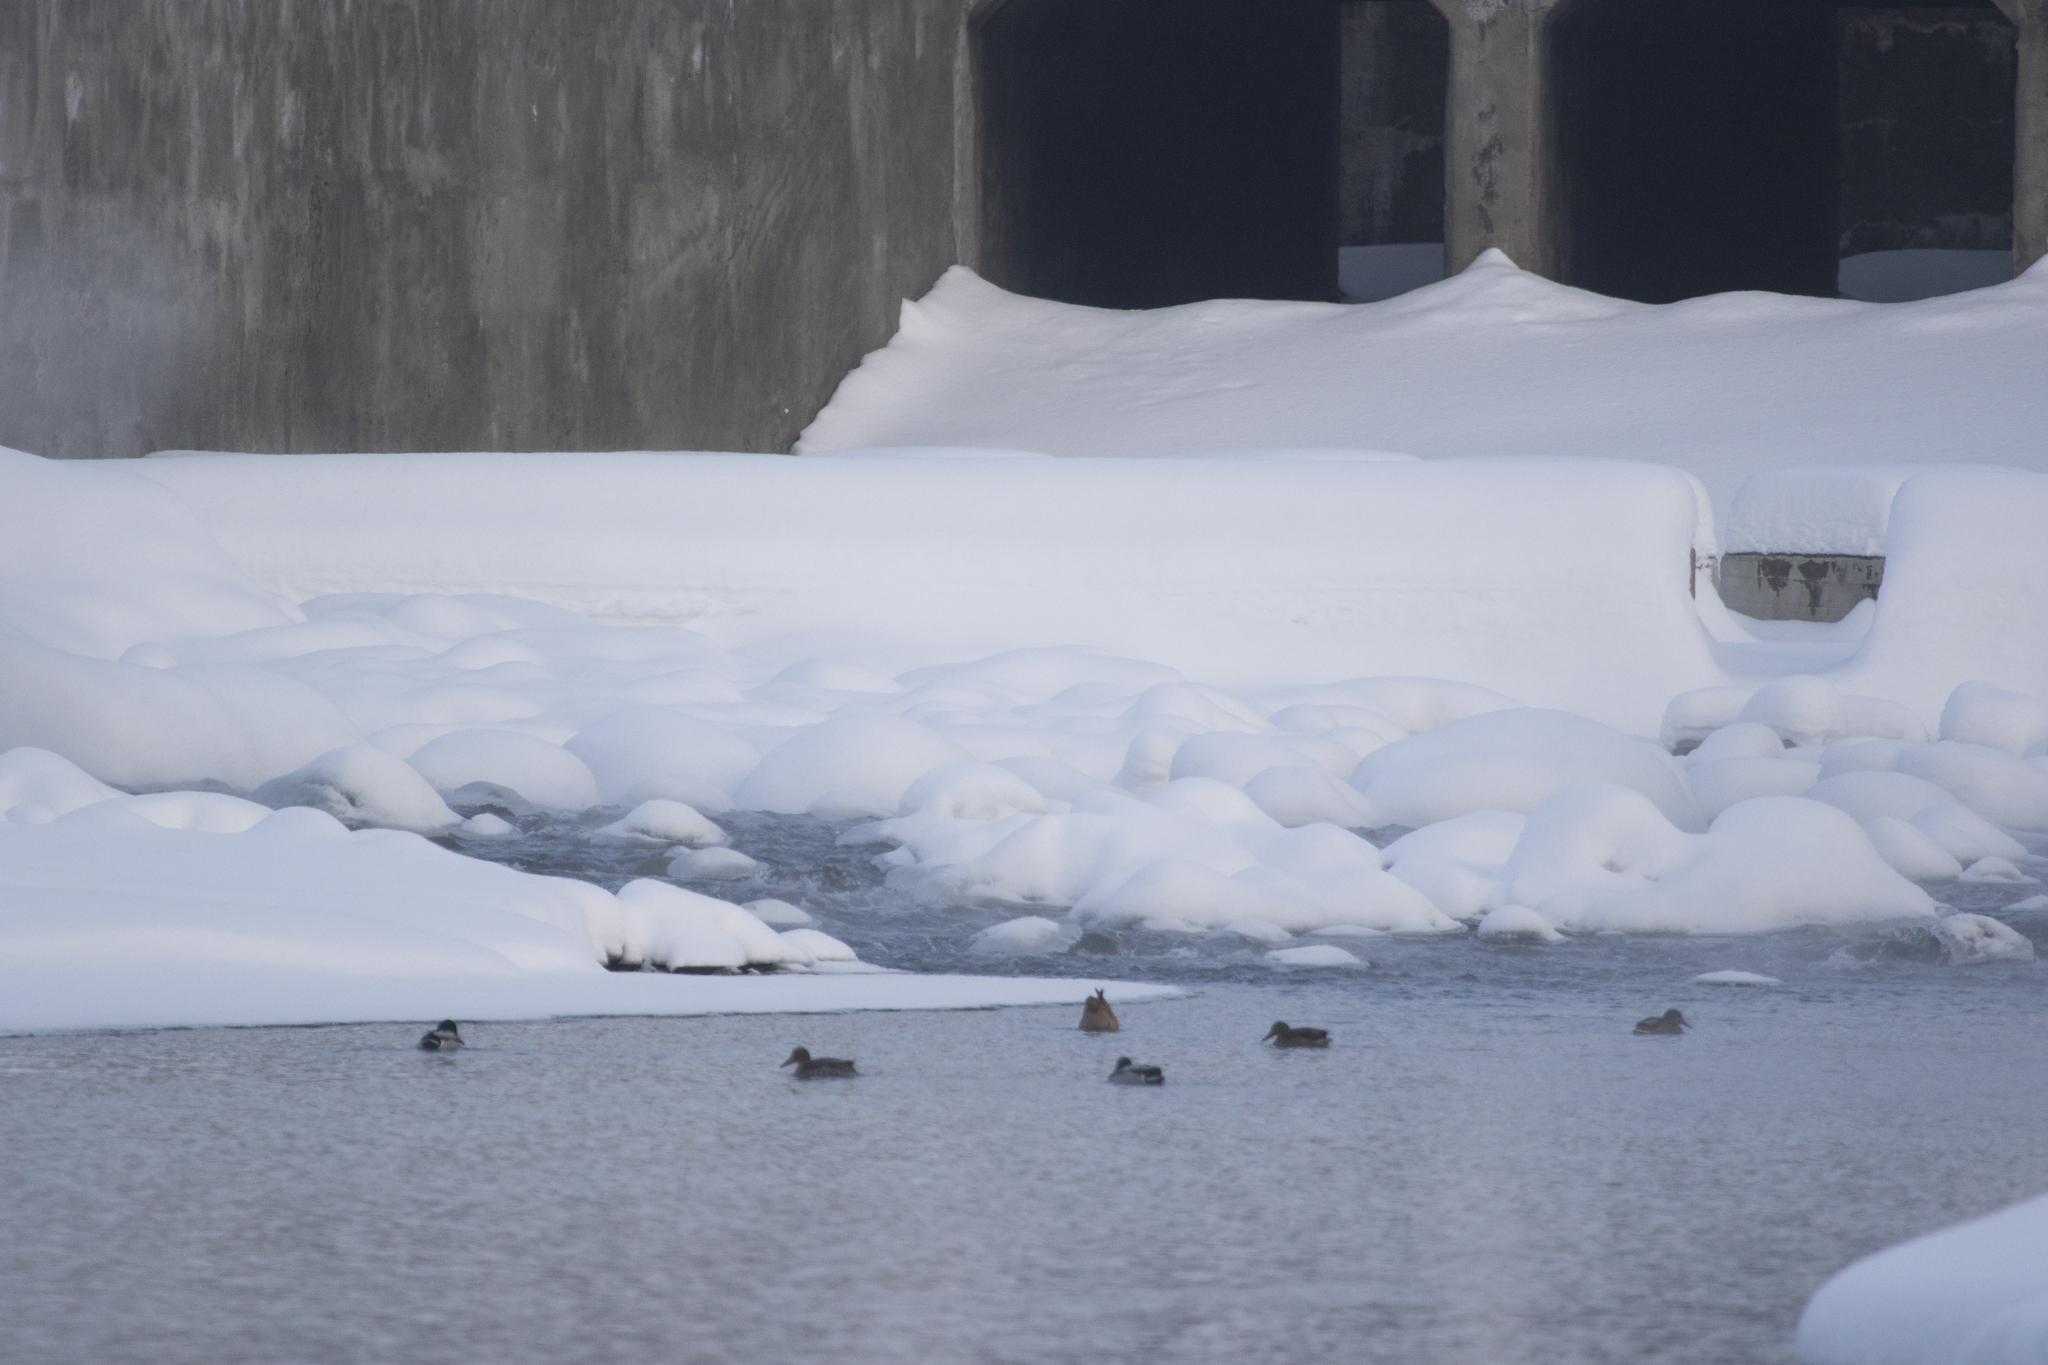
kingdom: Animalia
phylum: Chordata
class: Aves
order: Anseriformes
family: Anatidae
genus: Anas
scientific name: Anas platyrhynchos
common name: Mallard
